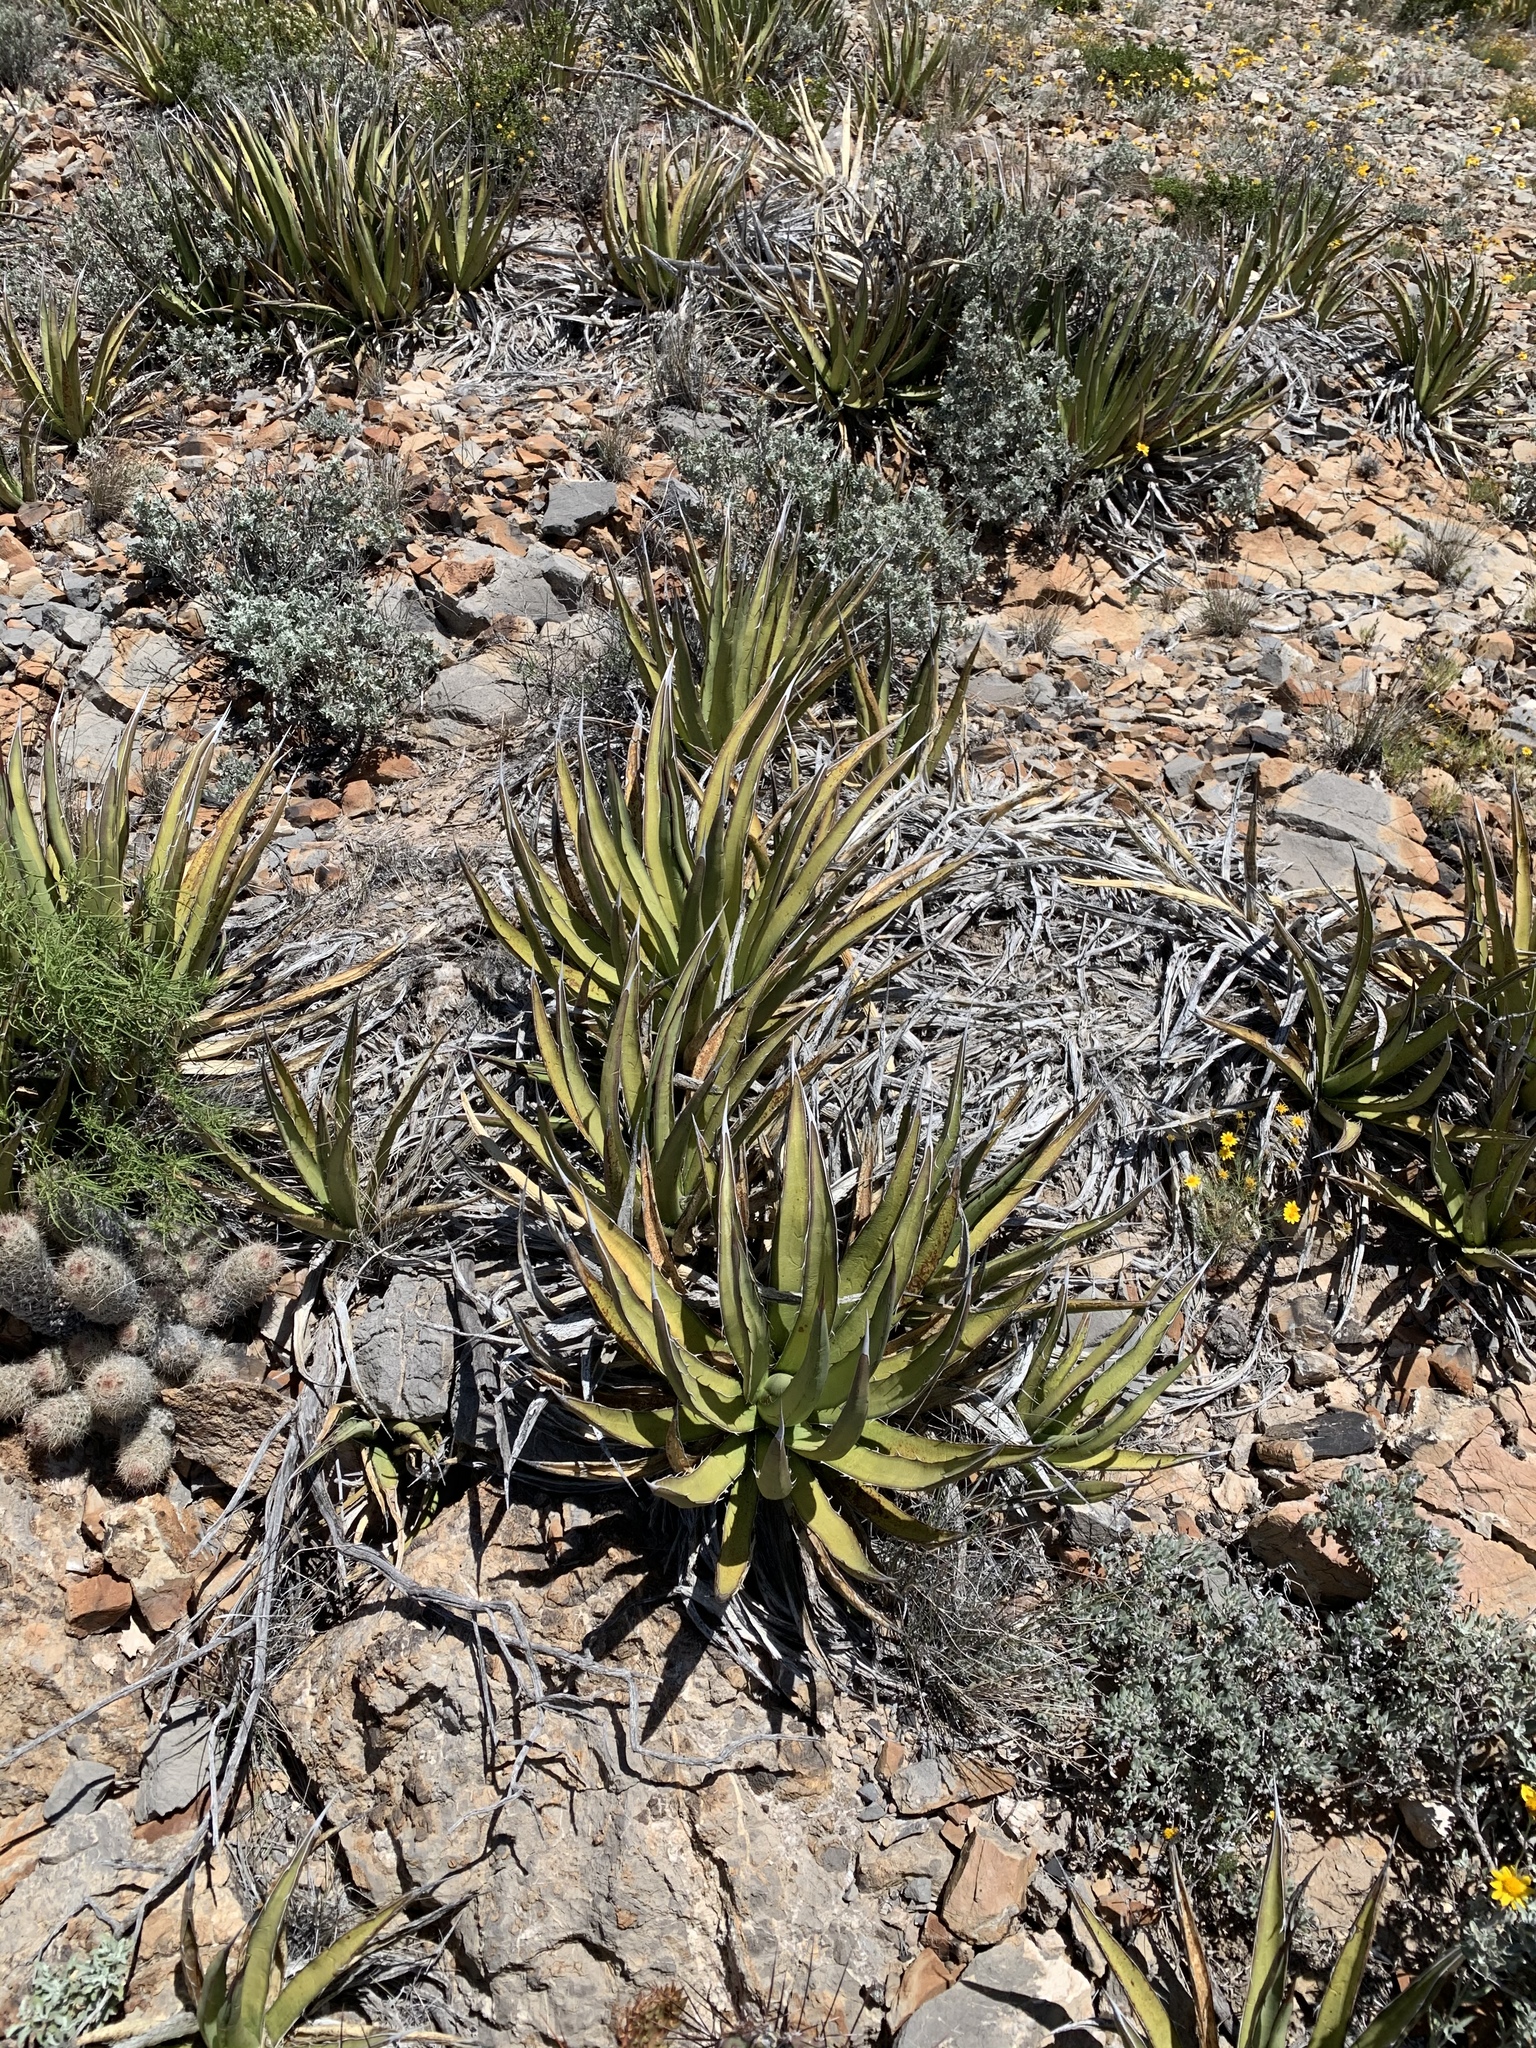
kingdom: Plantae
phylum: Tracheophyta
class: Liliopsida
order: Asparagales
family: Asparagaceae
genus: Agave
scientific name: Agave lechuguilla
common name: Lecheguilla agave
